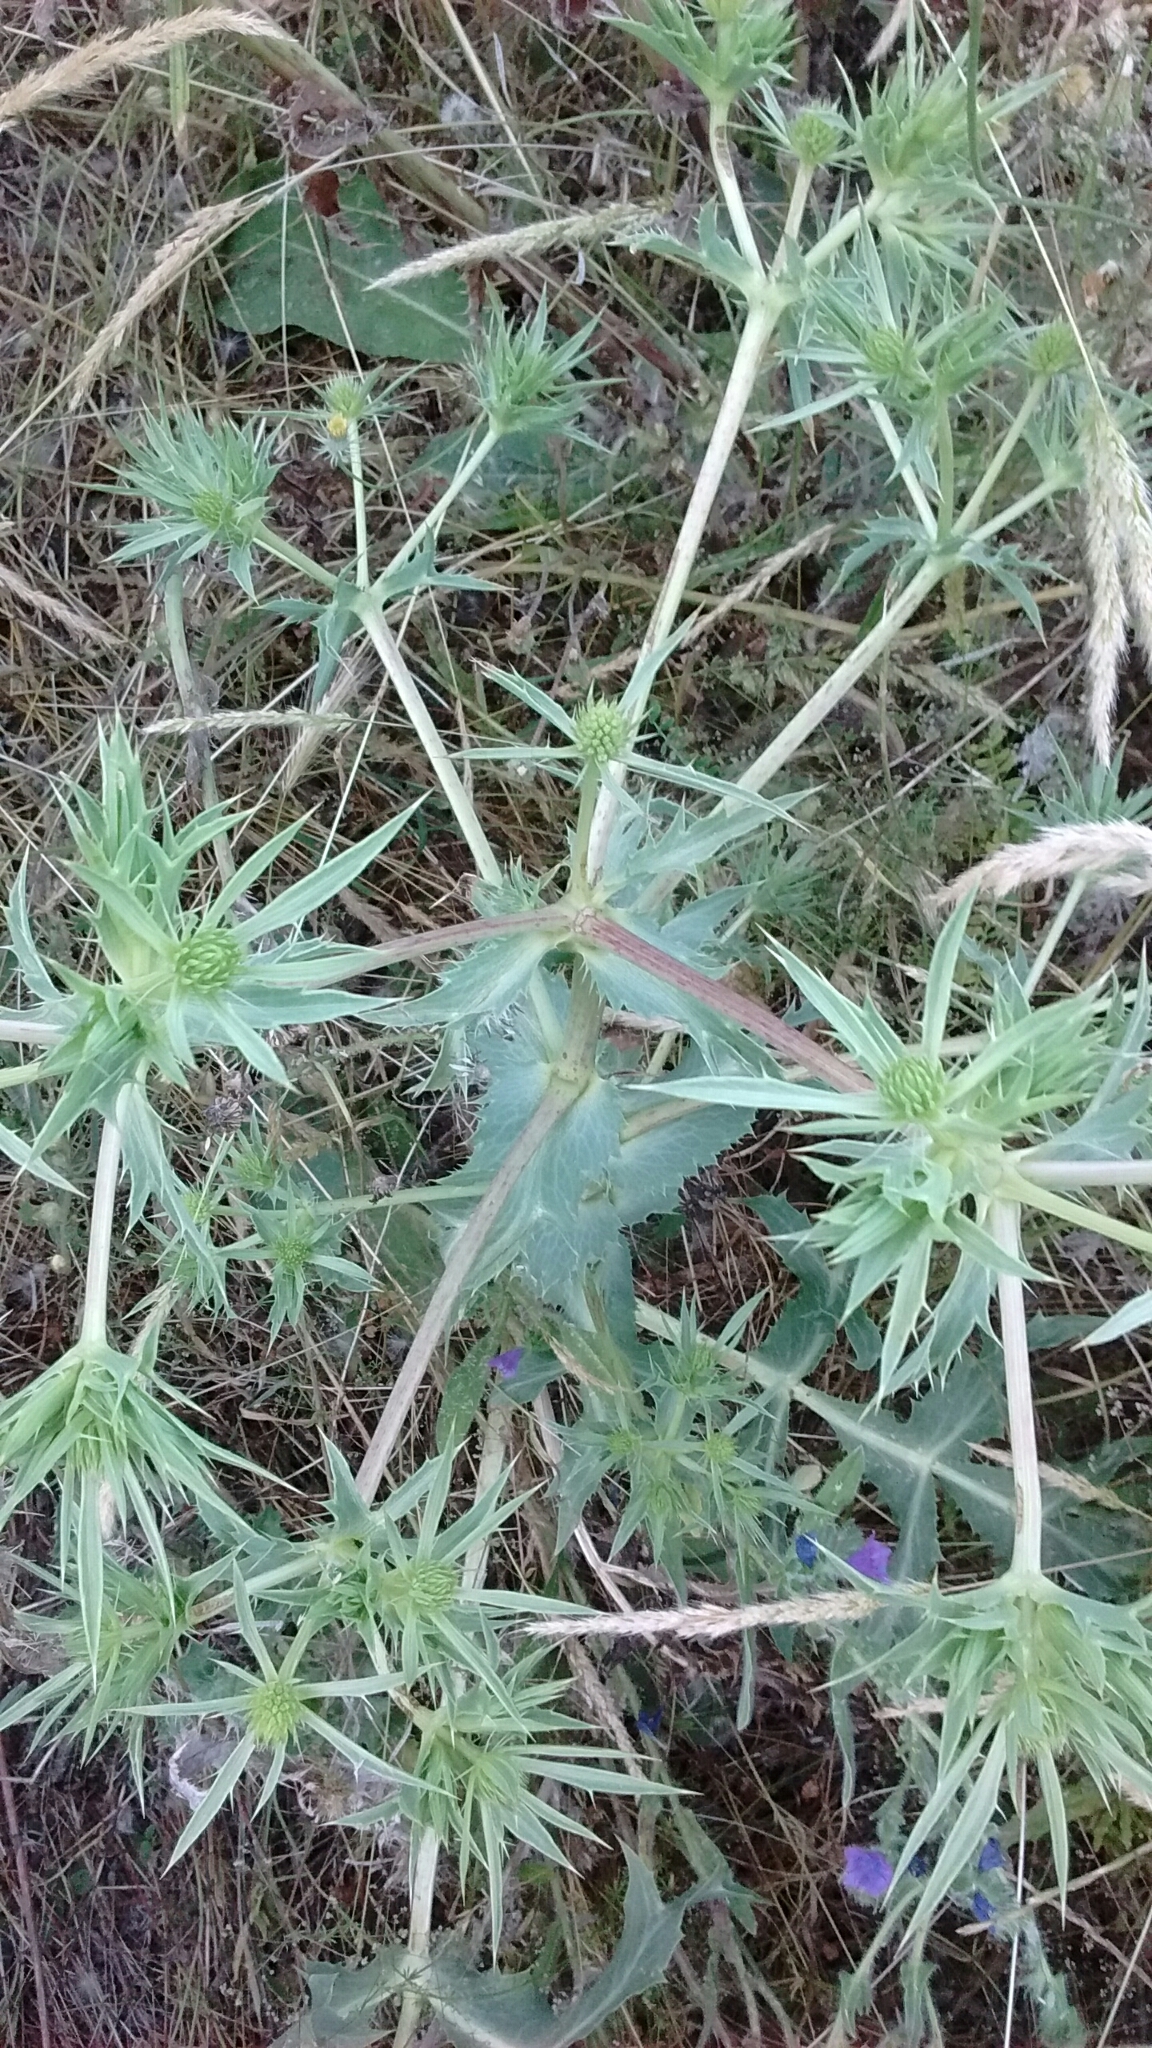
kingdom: Plantae
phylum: Tracheophyta
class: Magnoliopsida
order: Apiales
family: Apiaceae
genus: Eryngium
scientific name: Eryngium campestre
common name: Field eryngo
